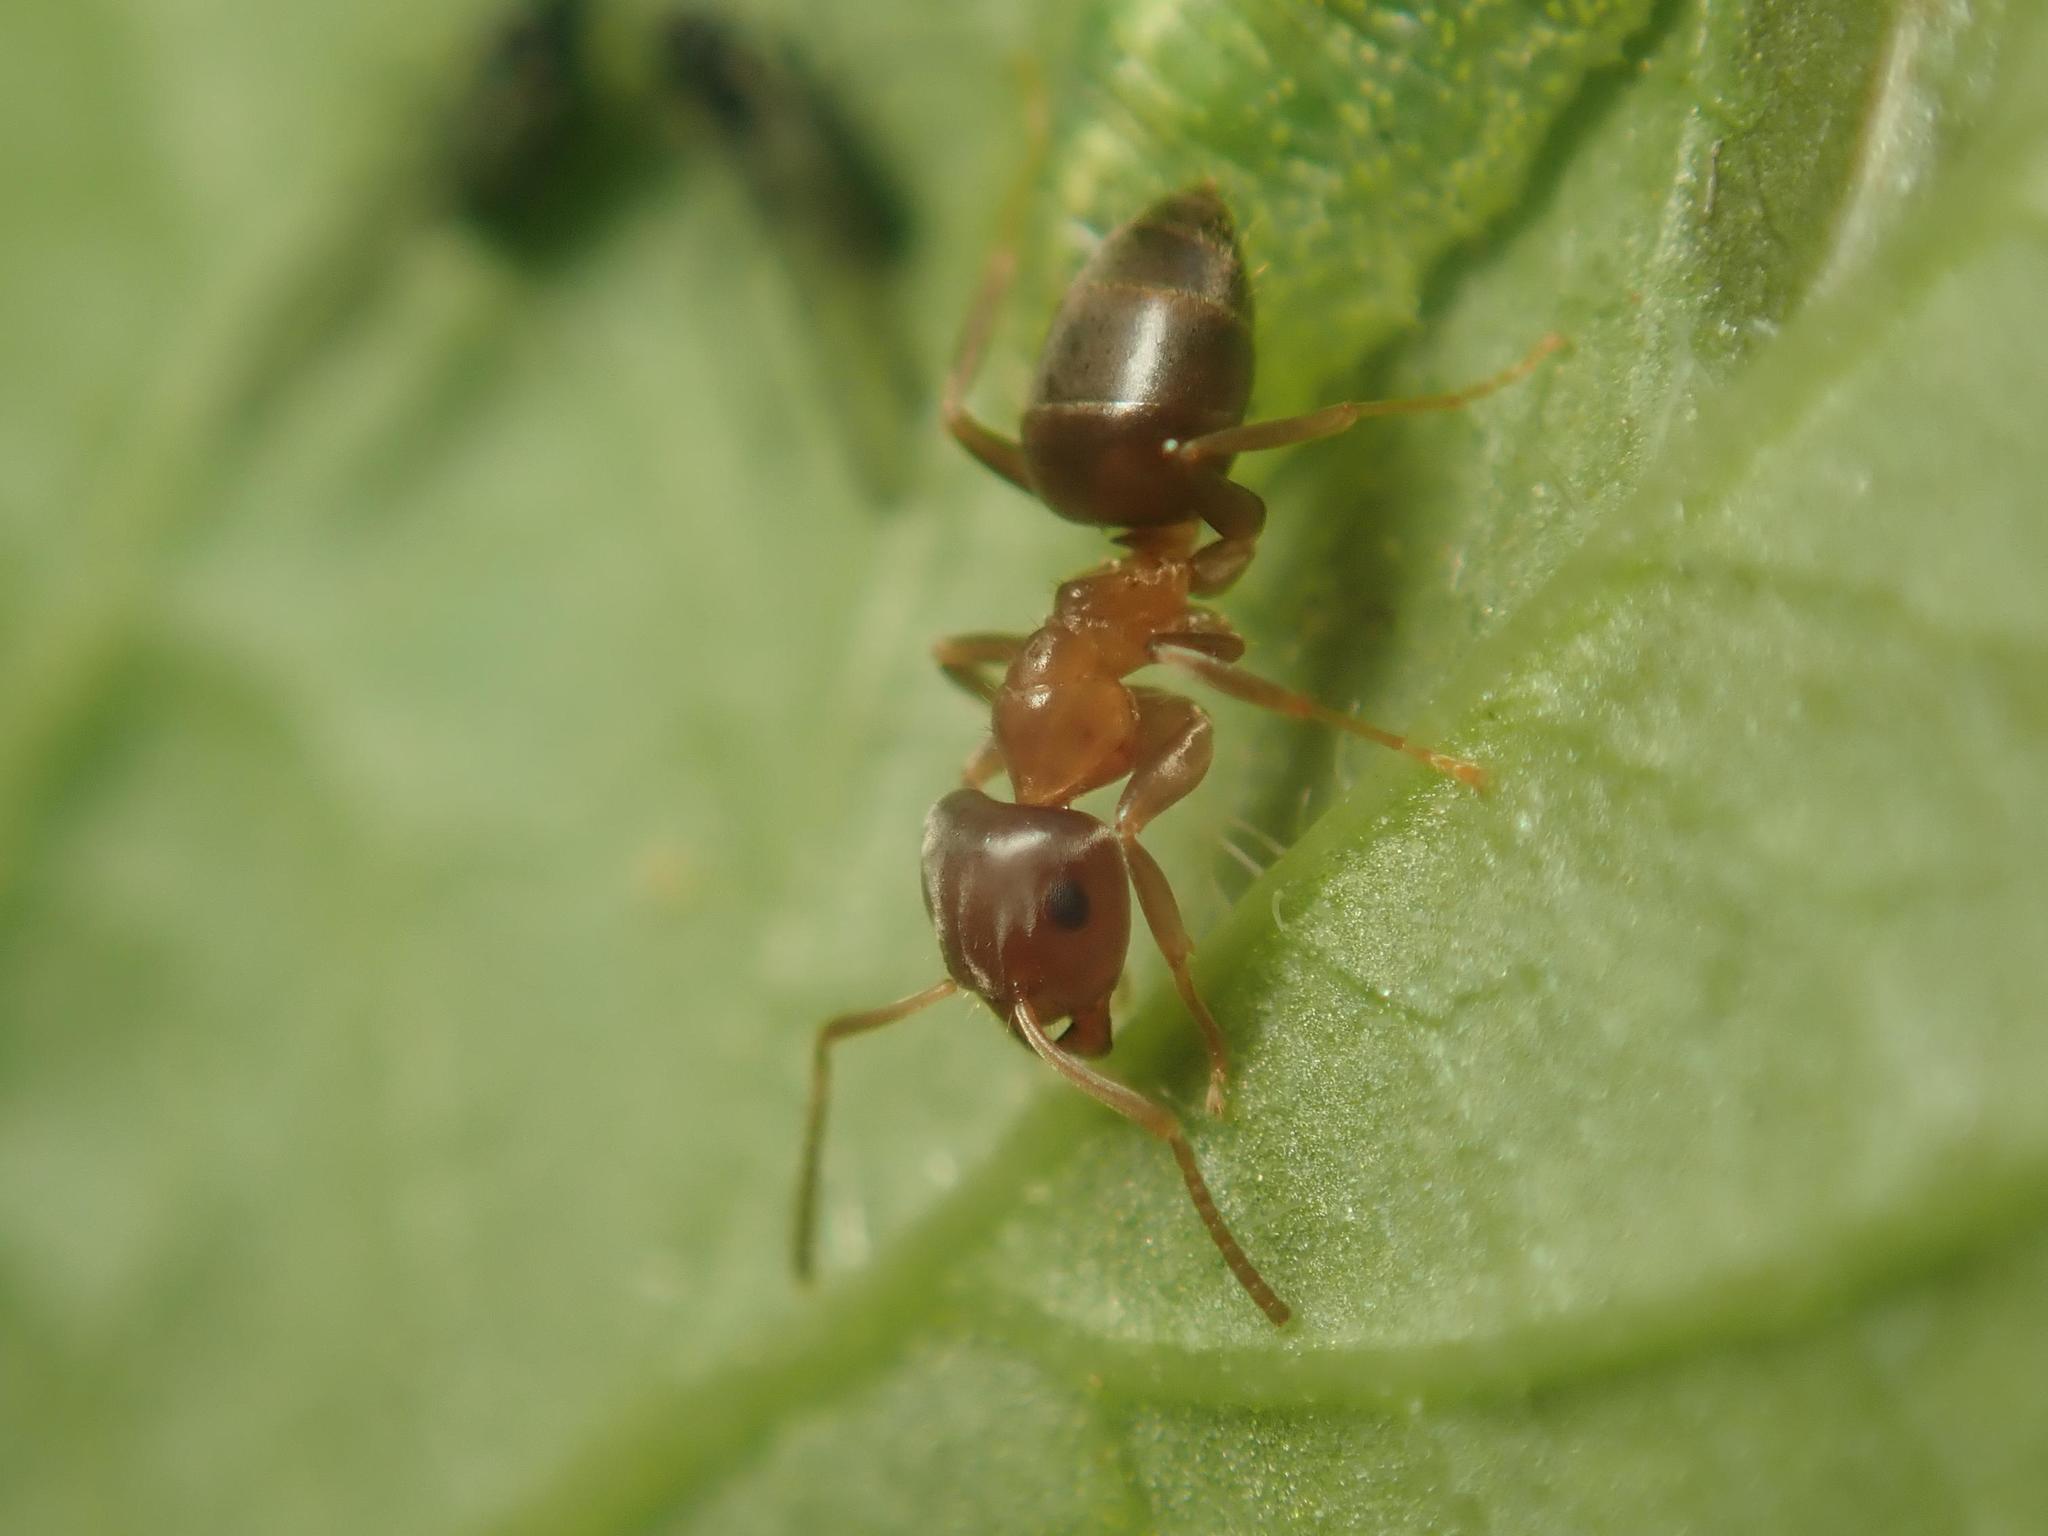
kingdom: Animalia
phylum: Arthropoda
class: Insecta
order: Hymenoptera
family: Formicidae
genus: Lasius
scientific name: Lasius brunneus
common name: Brown ant
